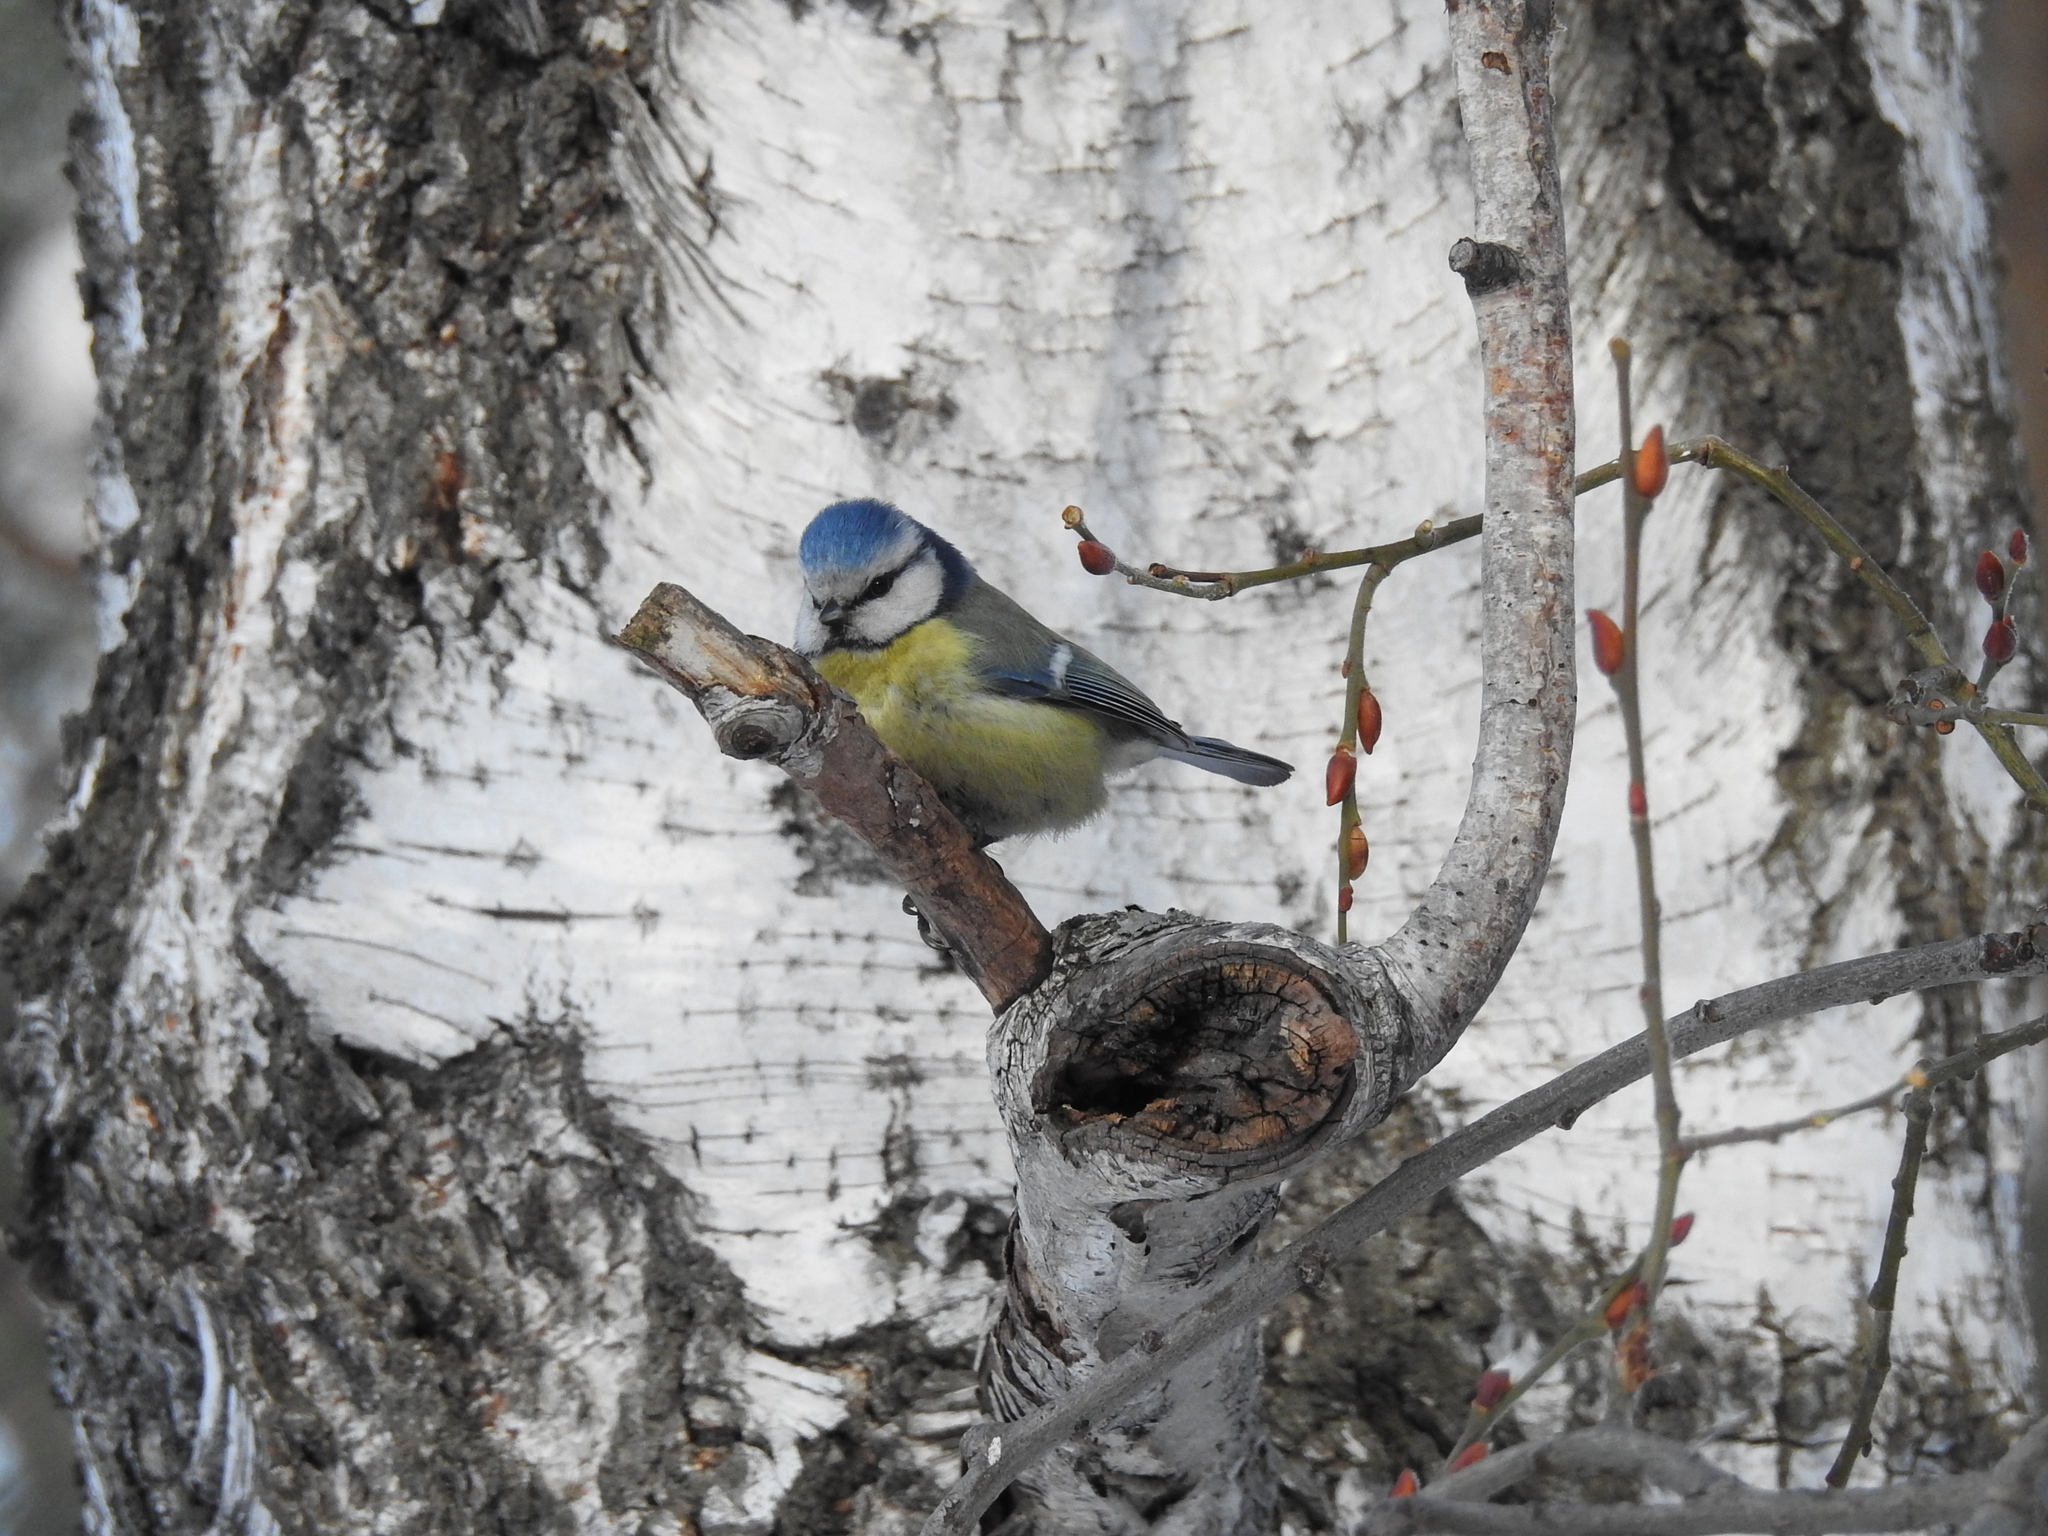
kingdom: Animalia
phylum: Chordata
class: Aves
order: Passeriformes
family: Paridae
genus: Cyanistes
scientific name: Cyanistes caeruleus
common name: Eurasian blue tit
